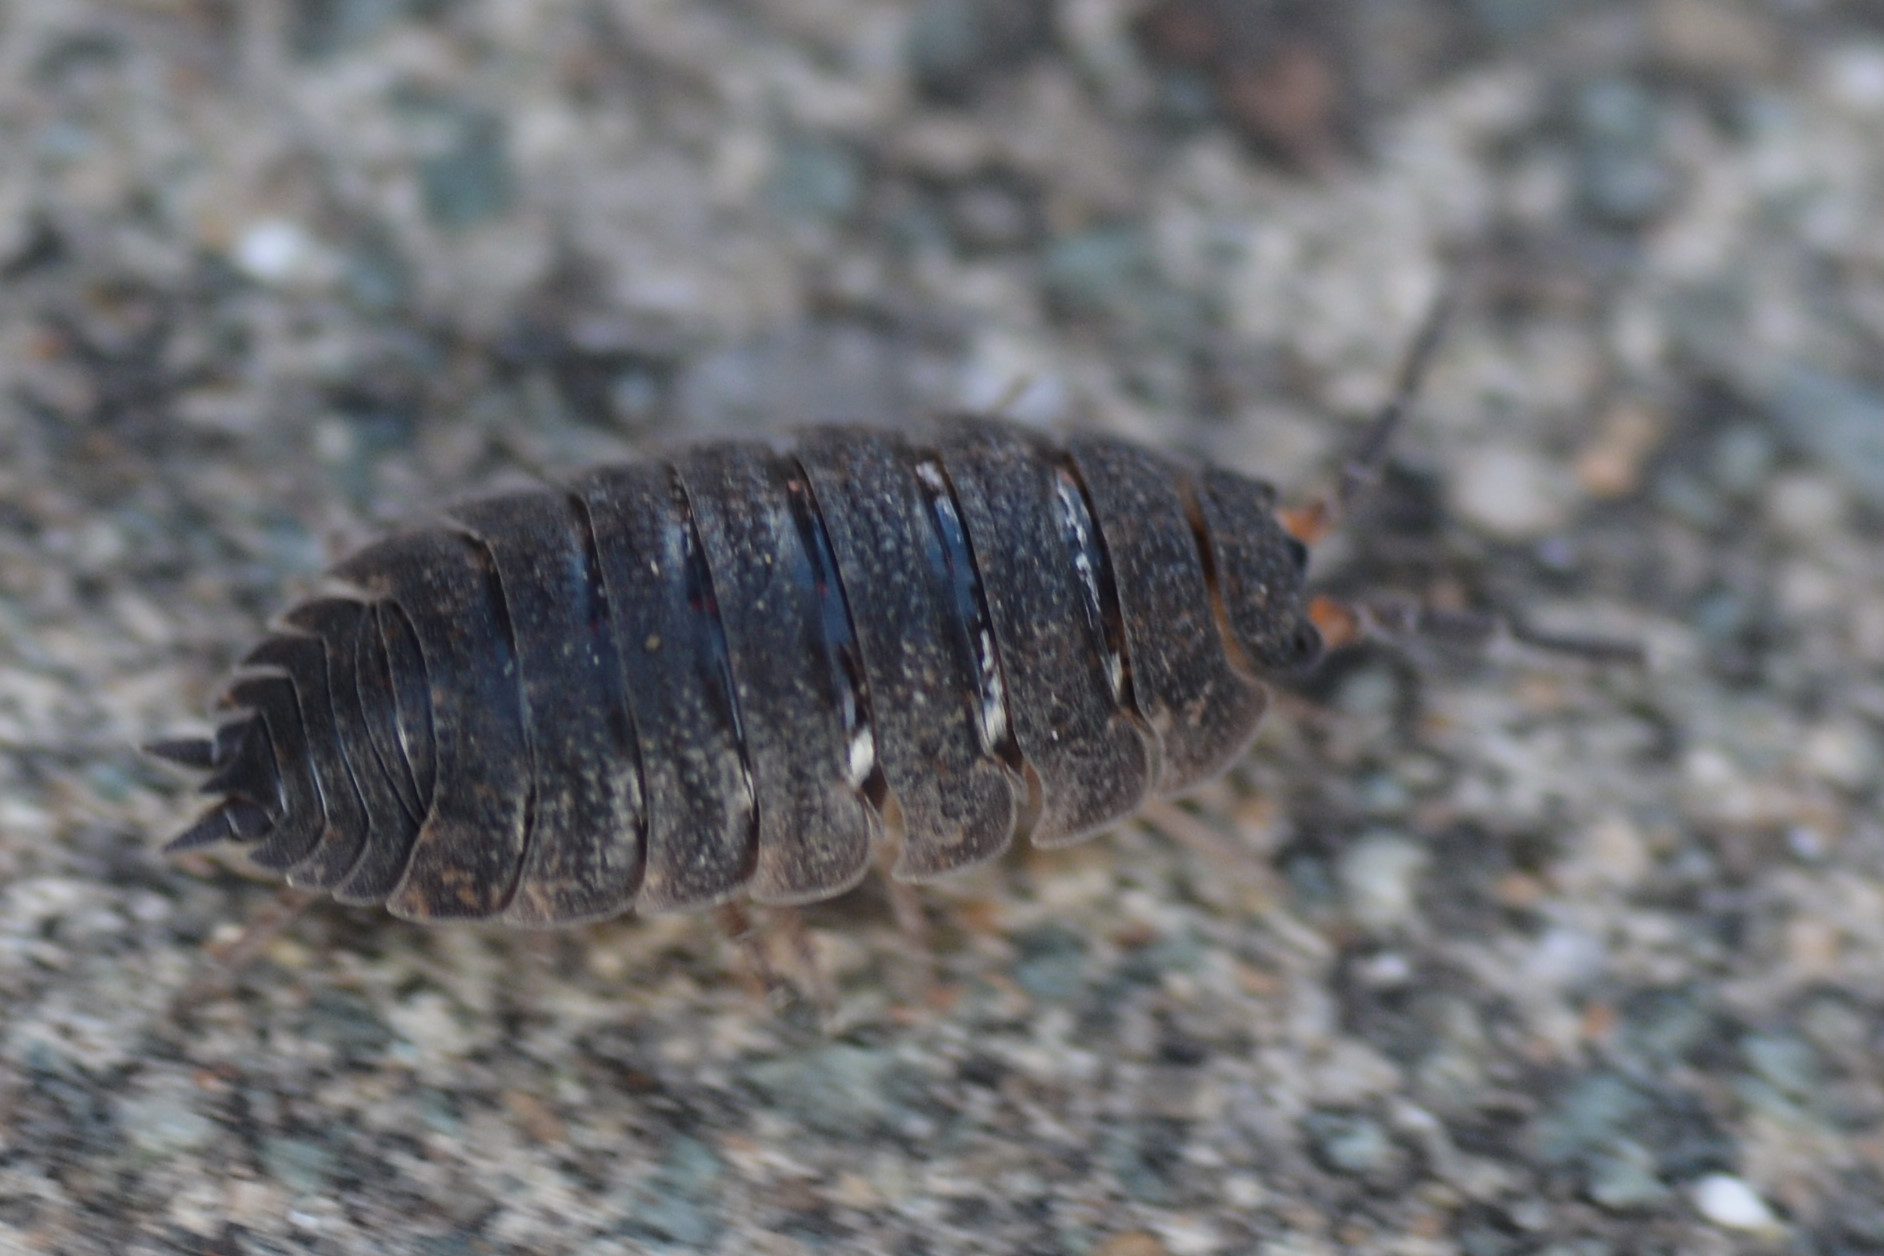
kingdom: Animalia
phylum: Arthropoda
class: Malacostraca
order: Isopoda
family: Porcellionidae
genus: Porcellio
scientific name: Porcellio scaber
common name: Common rough woodlouse
